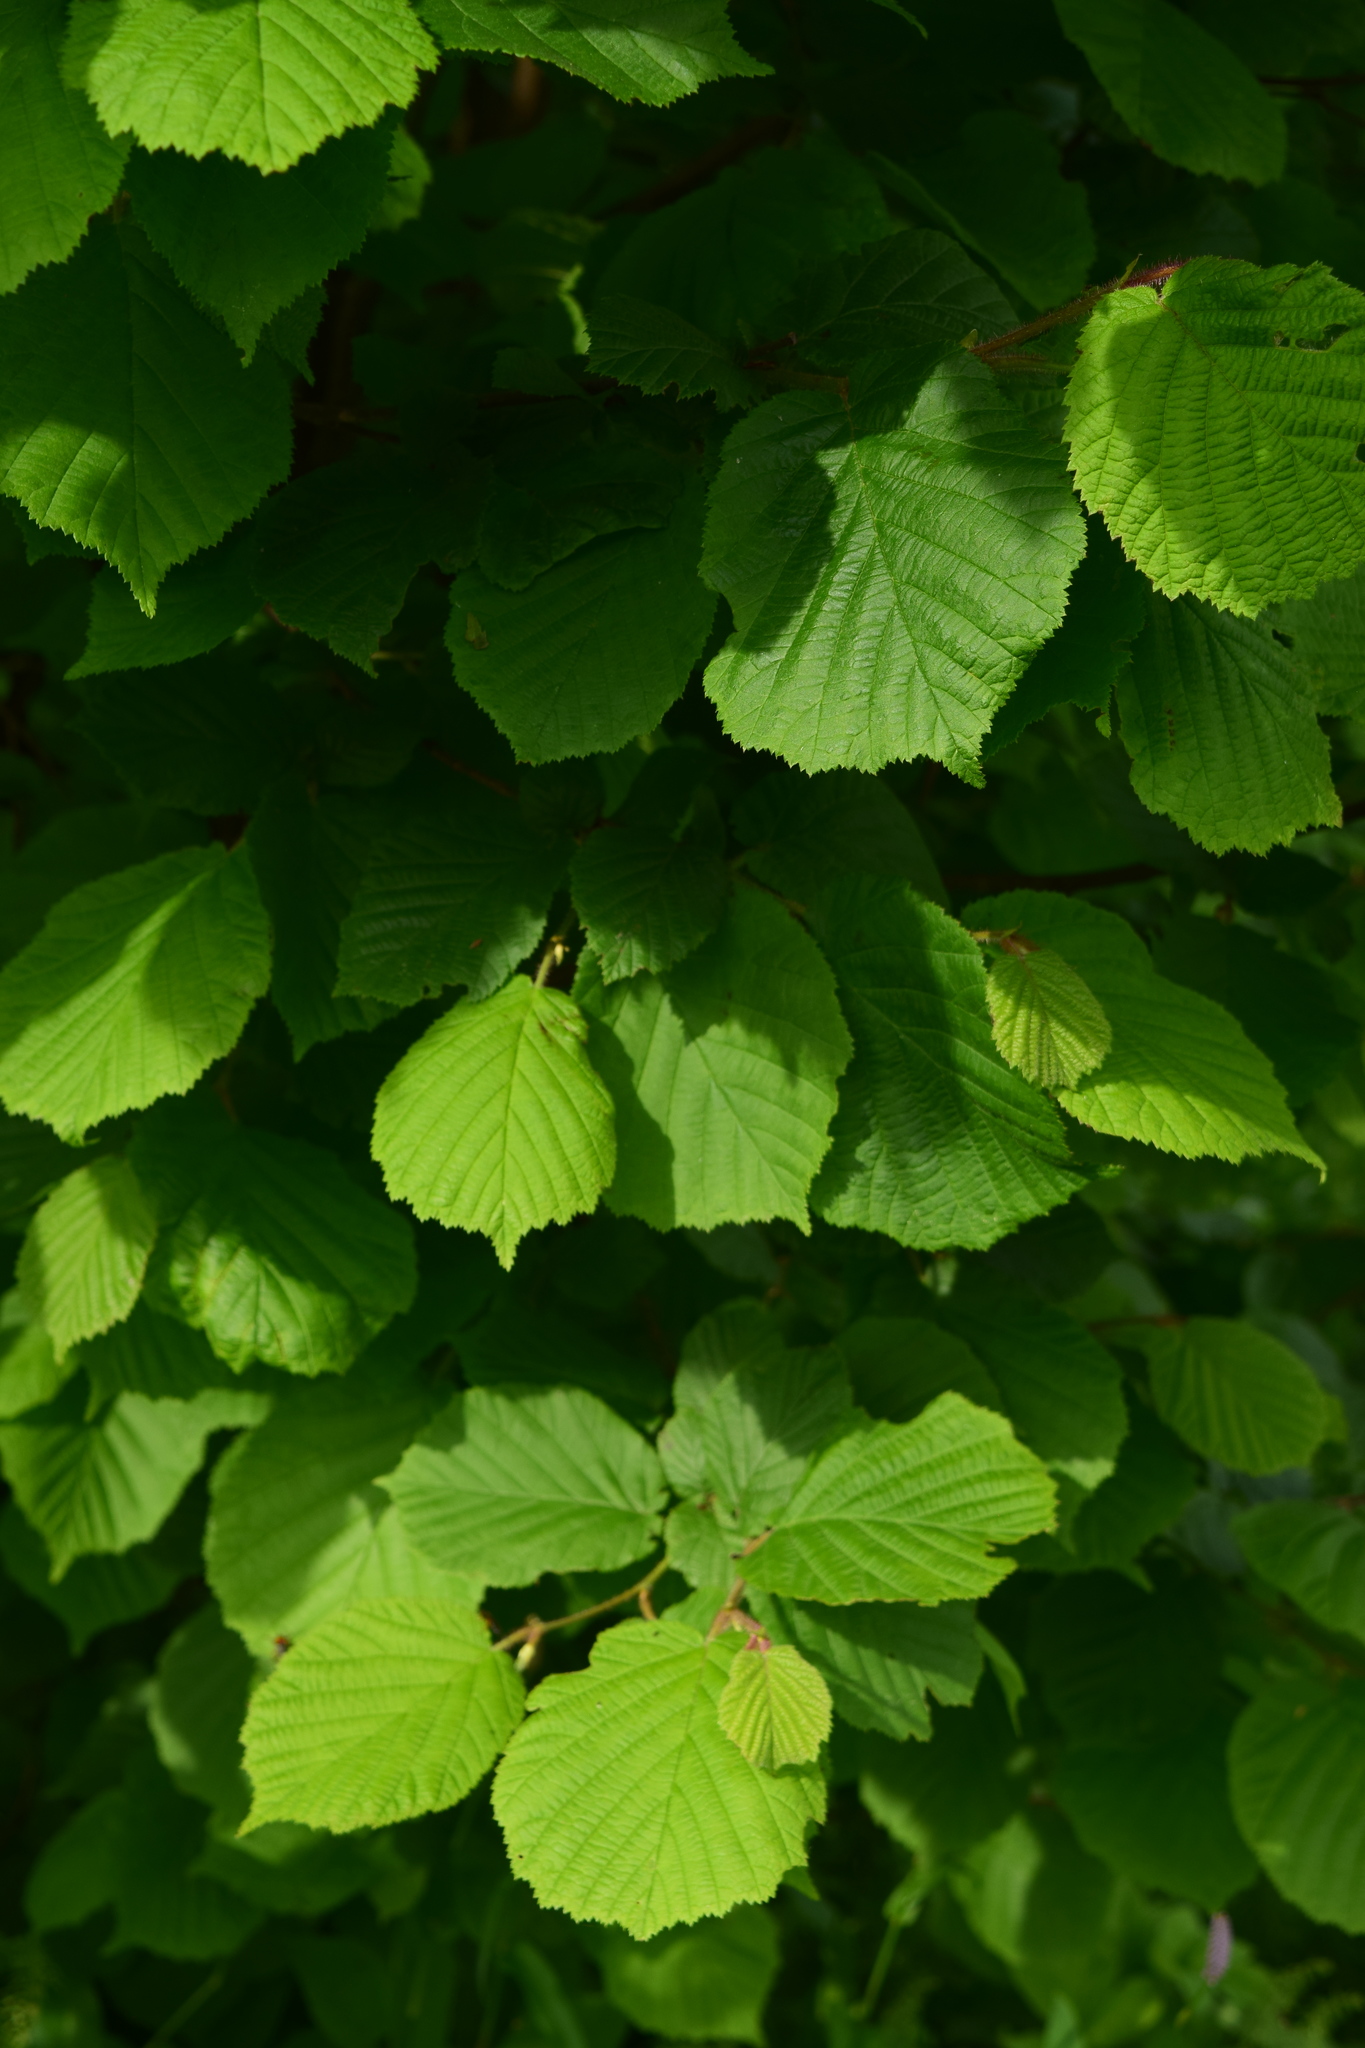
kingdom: Plantae
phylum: Tracheophyta
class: Magnoliopsida
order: Fagales
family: Betulaceae
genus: Corylus
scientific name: Corylus avellana
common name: European hazel
